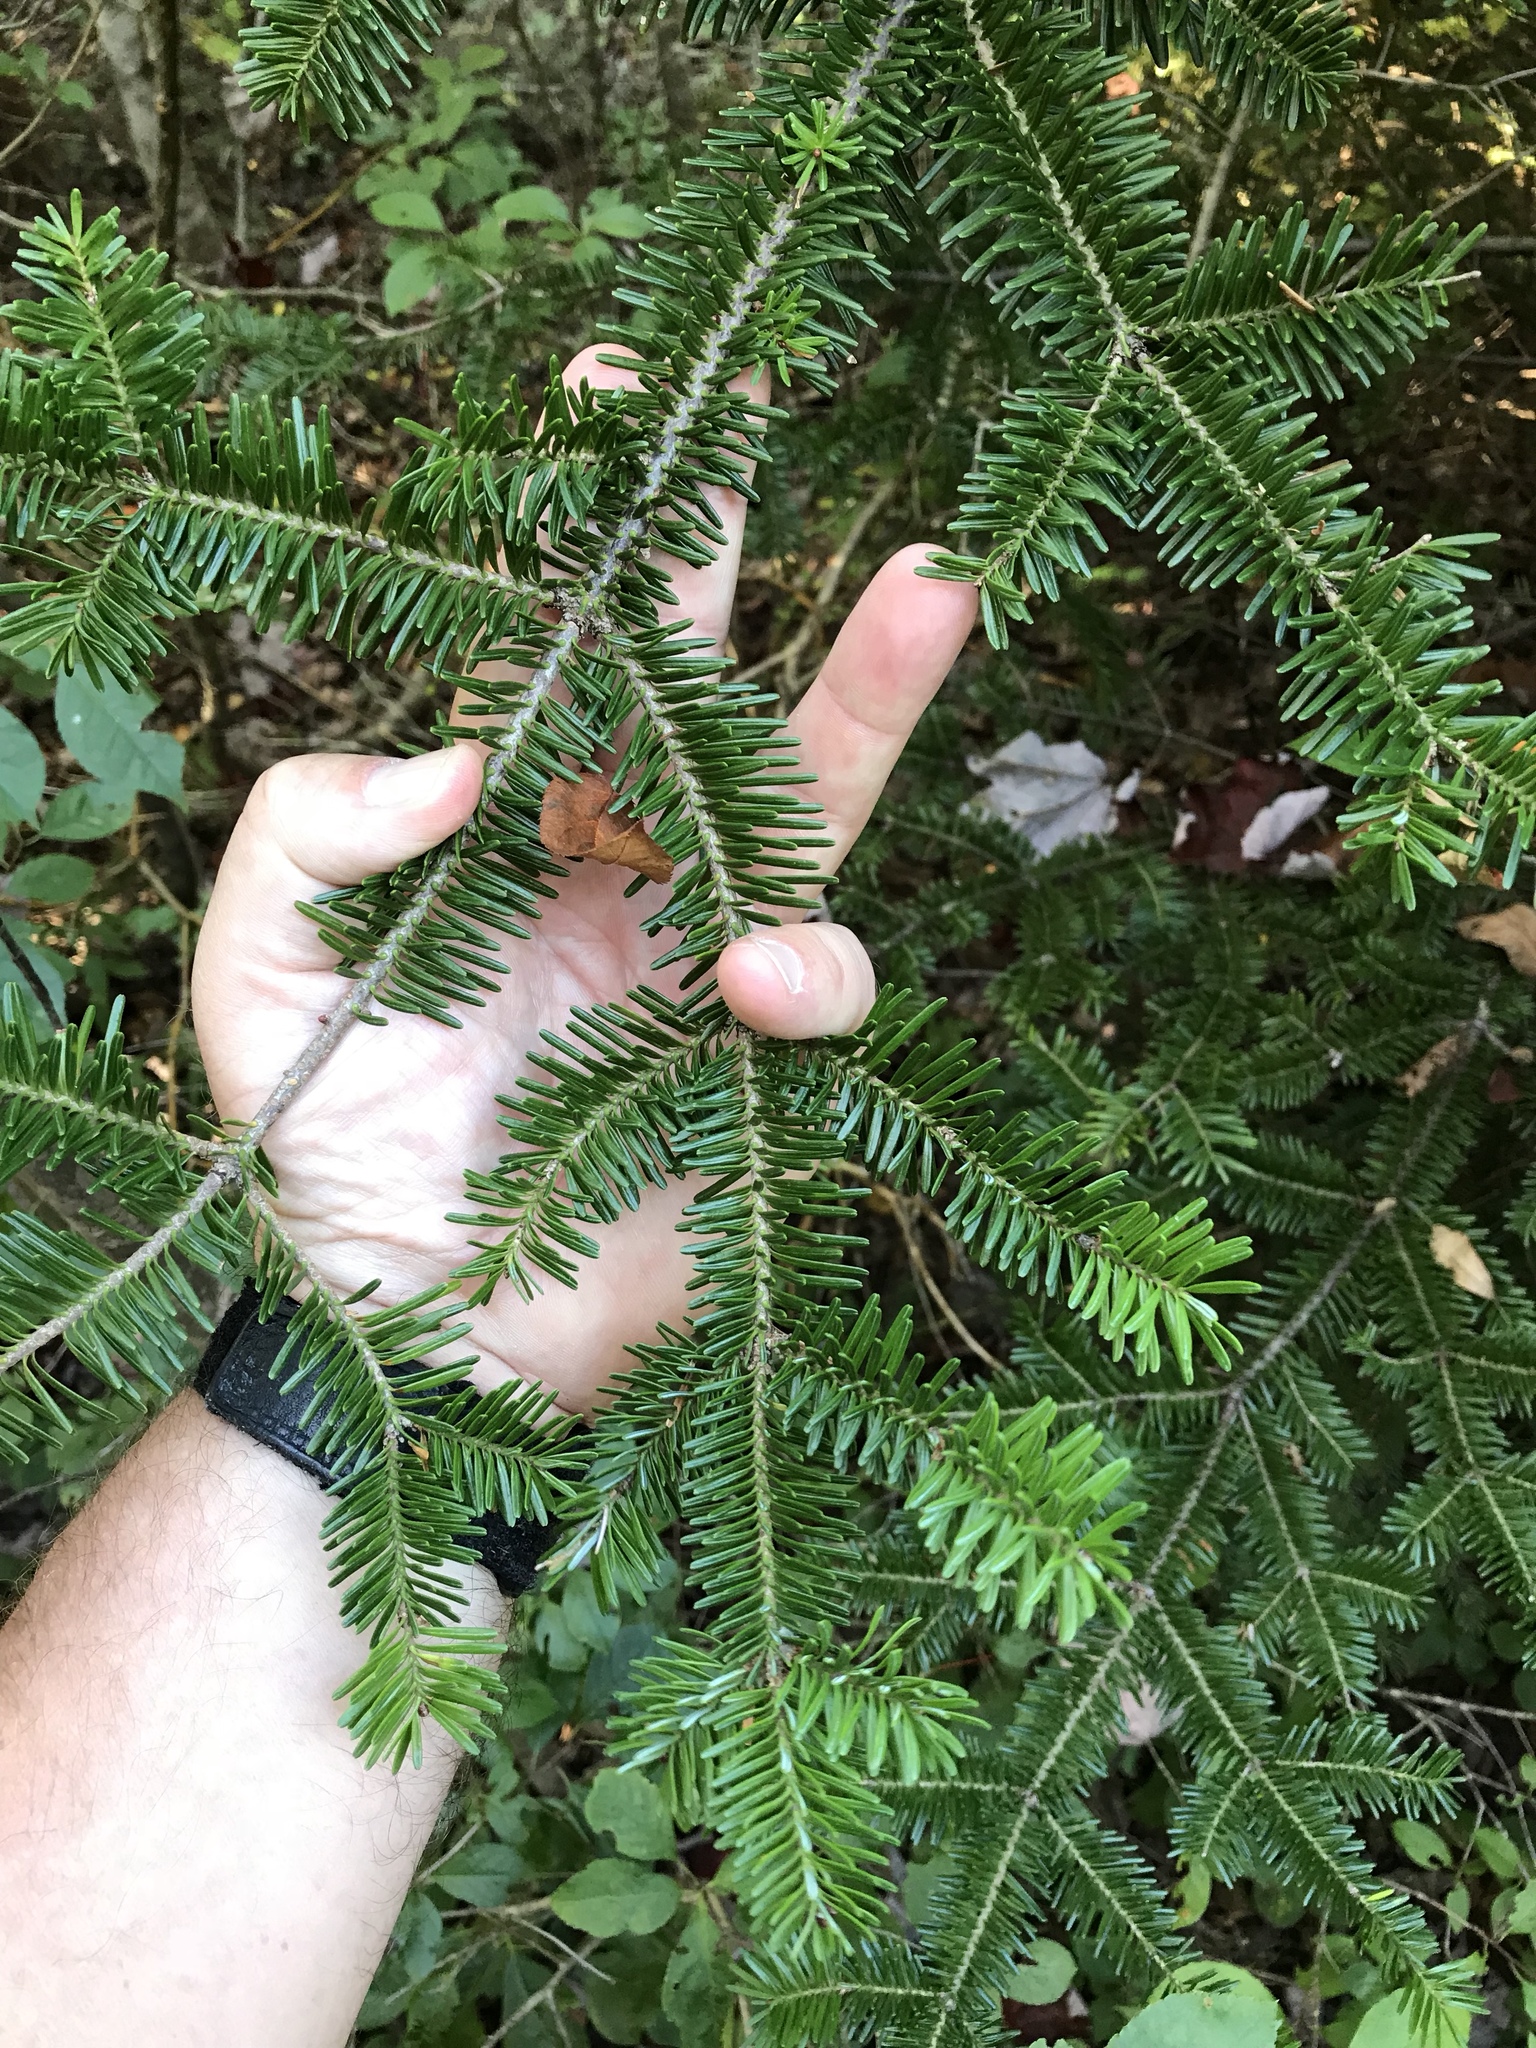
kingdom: Plantae
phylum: Tracheophyta
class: Pinopsida
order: Pinales
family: Pinaceae
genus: Abies
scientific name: Abies balsamea
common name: Balsam fir
